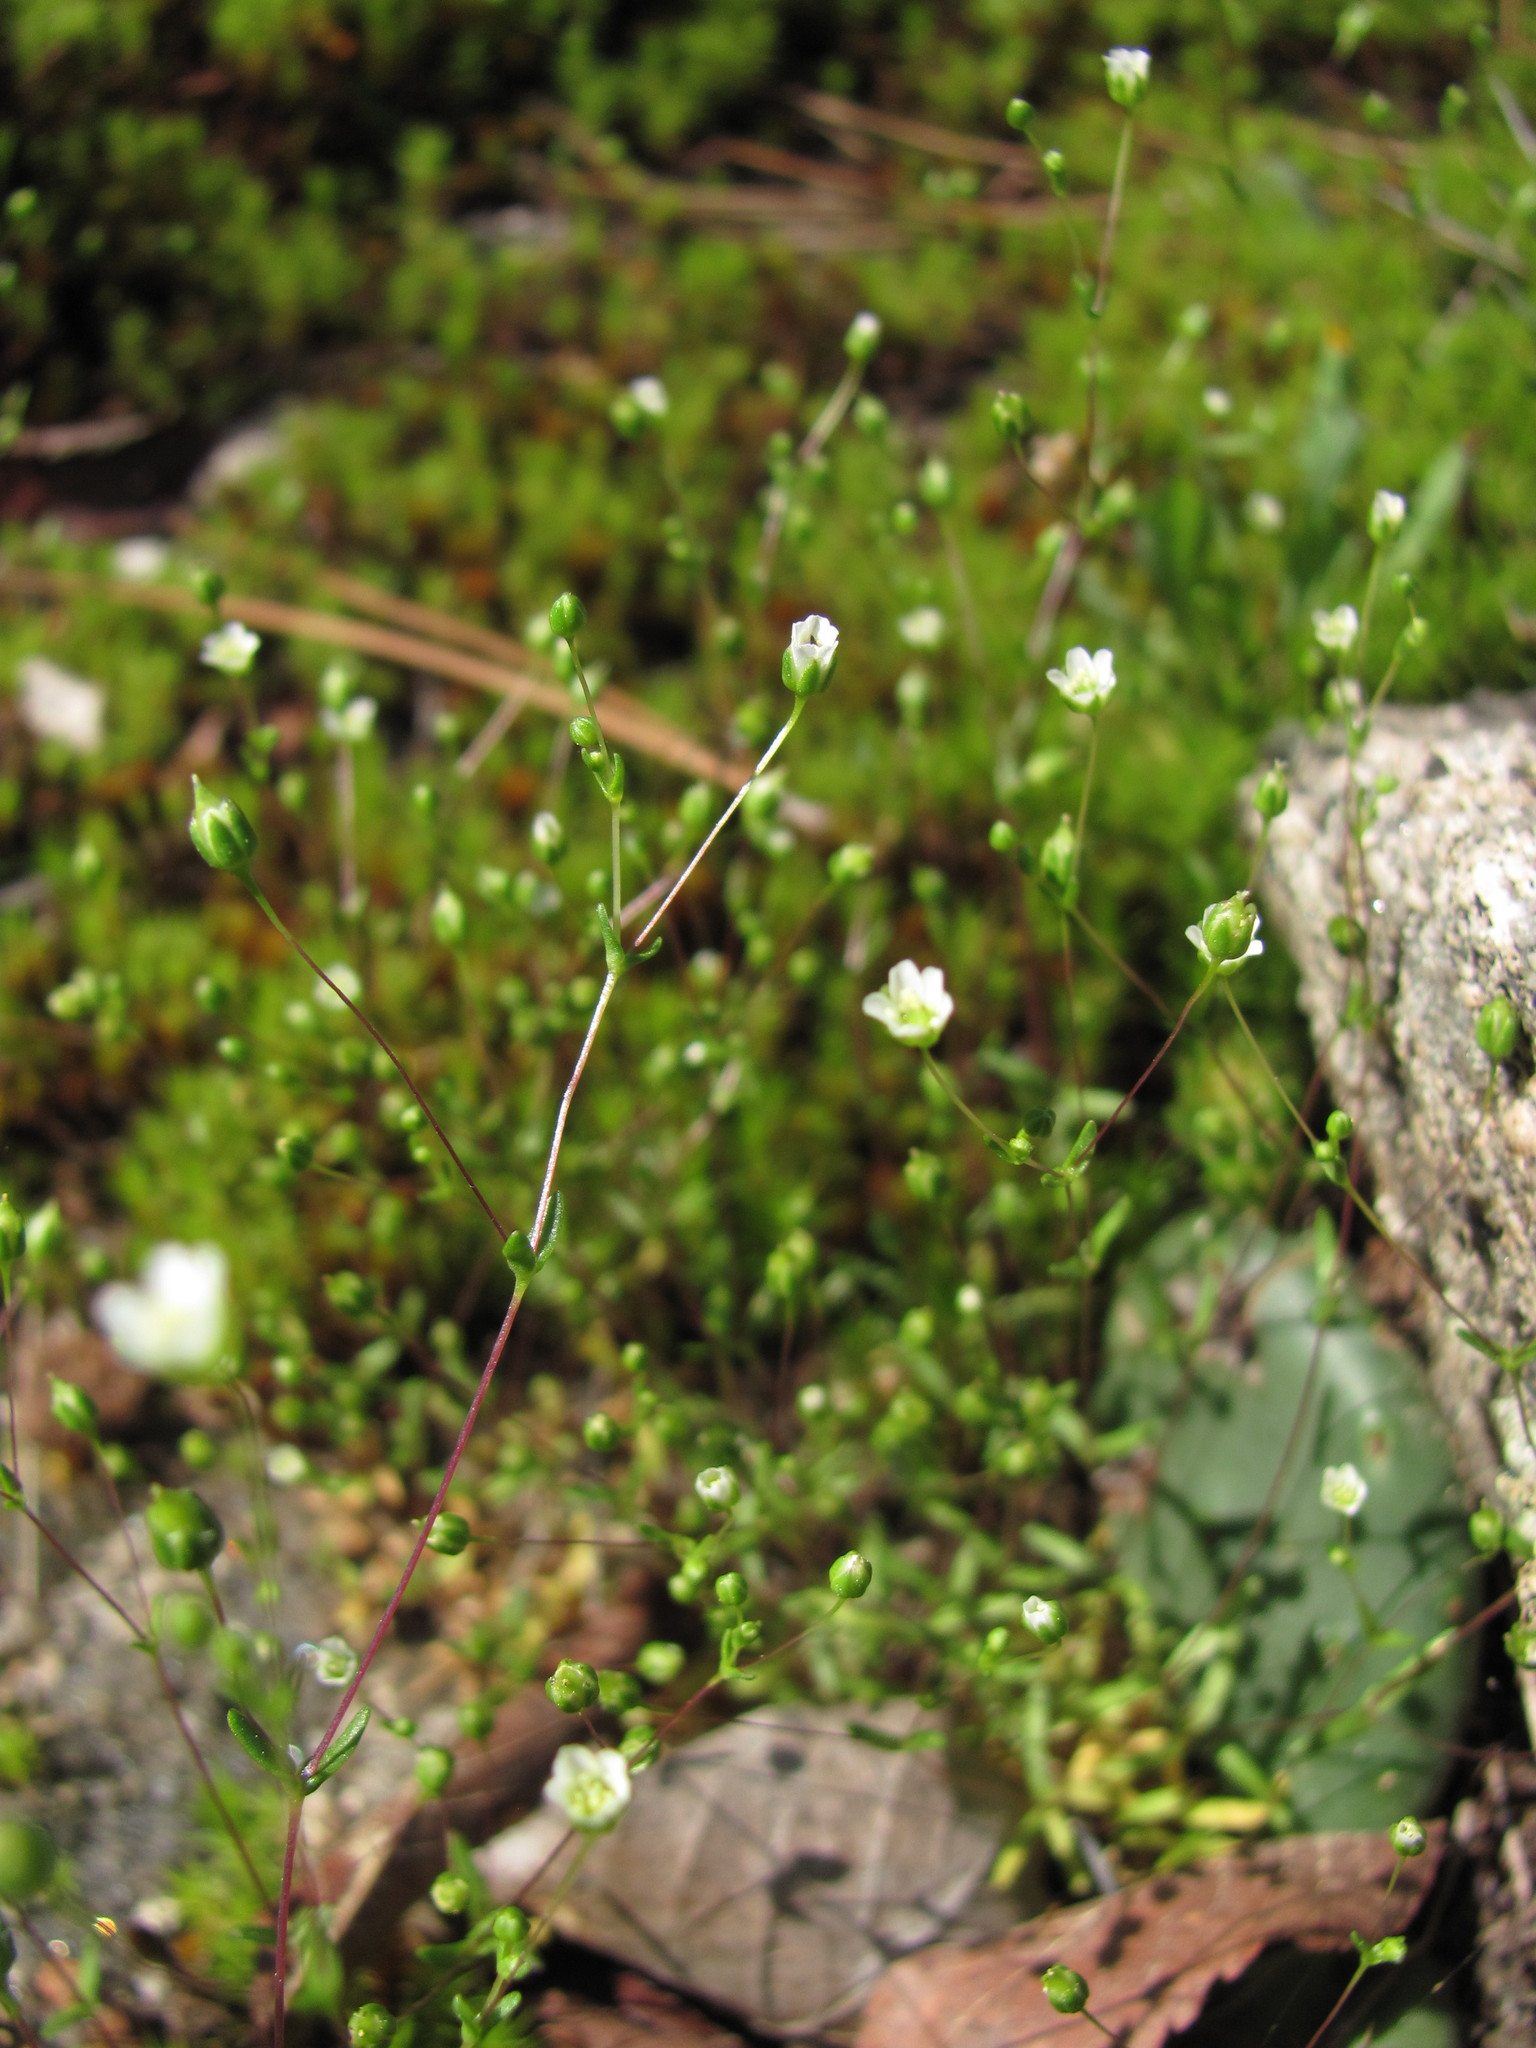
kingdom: Plantae
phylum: Tracheophyta
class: Magnoliopsida
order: Caryophyllales
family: Caryophyllaceae
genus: Geocarpon
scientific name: Geocarpon uniflorum
